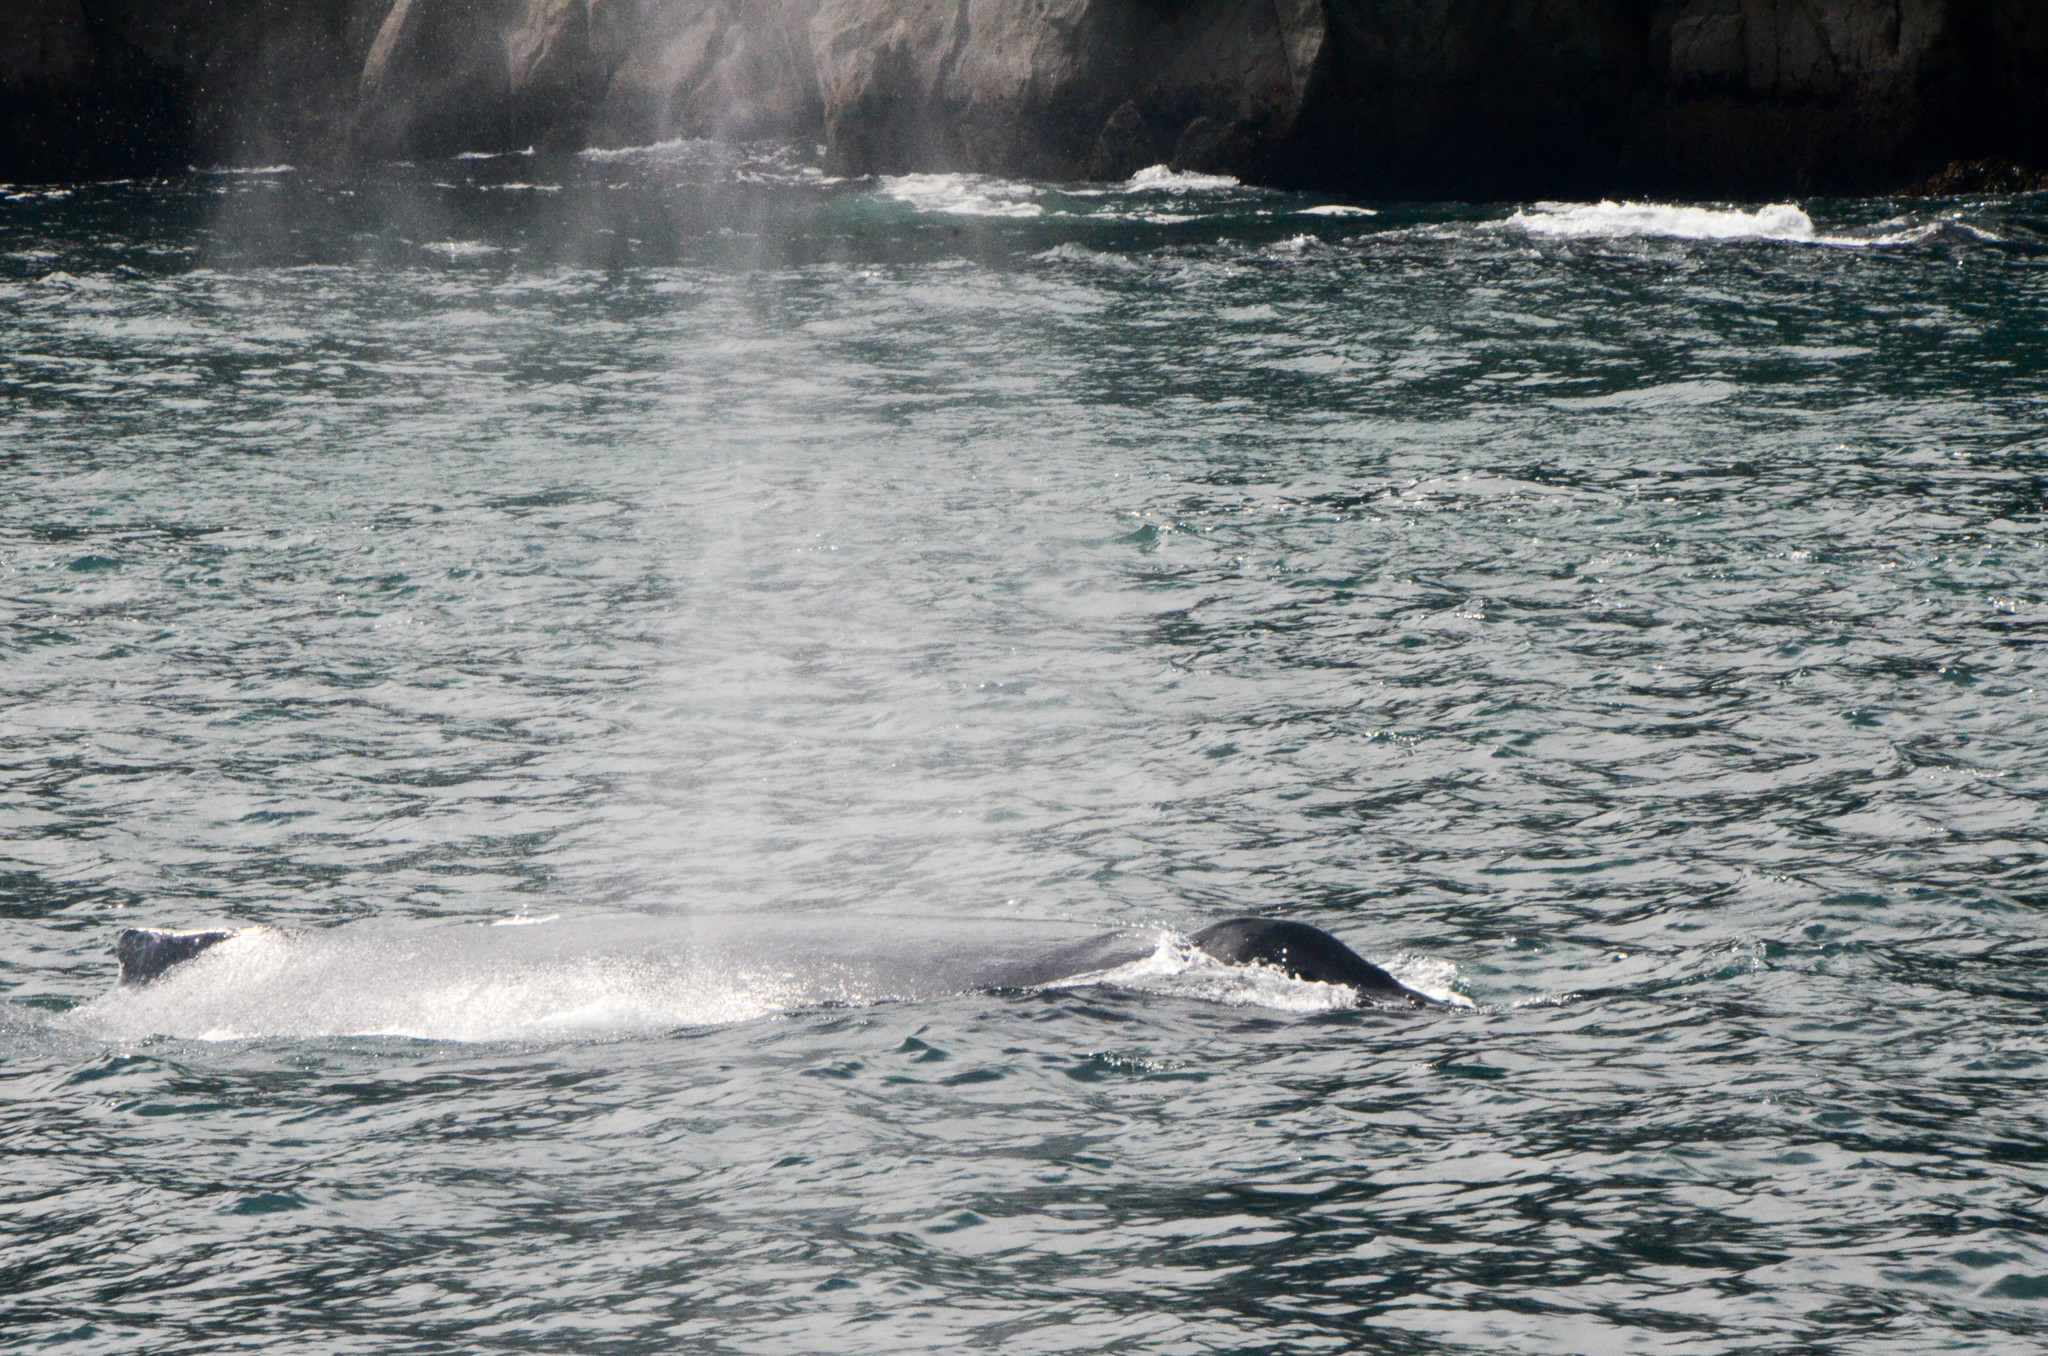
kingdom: Animalia
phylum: Chordata
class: Mammalia
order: Cetacea
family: Balaenopteridae
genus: Megaptera
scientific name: Megaptera novaeangliae
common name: Humpback whale
